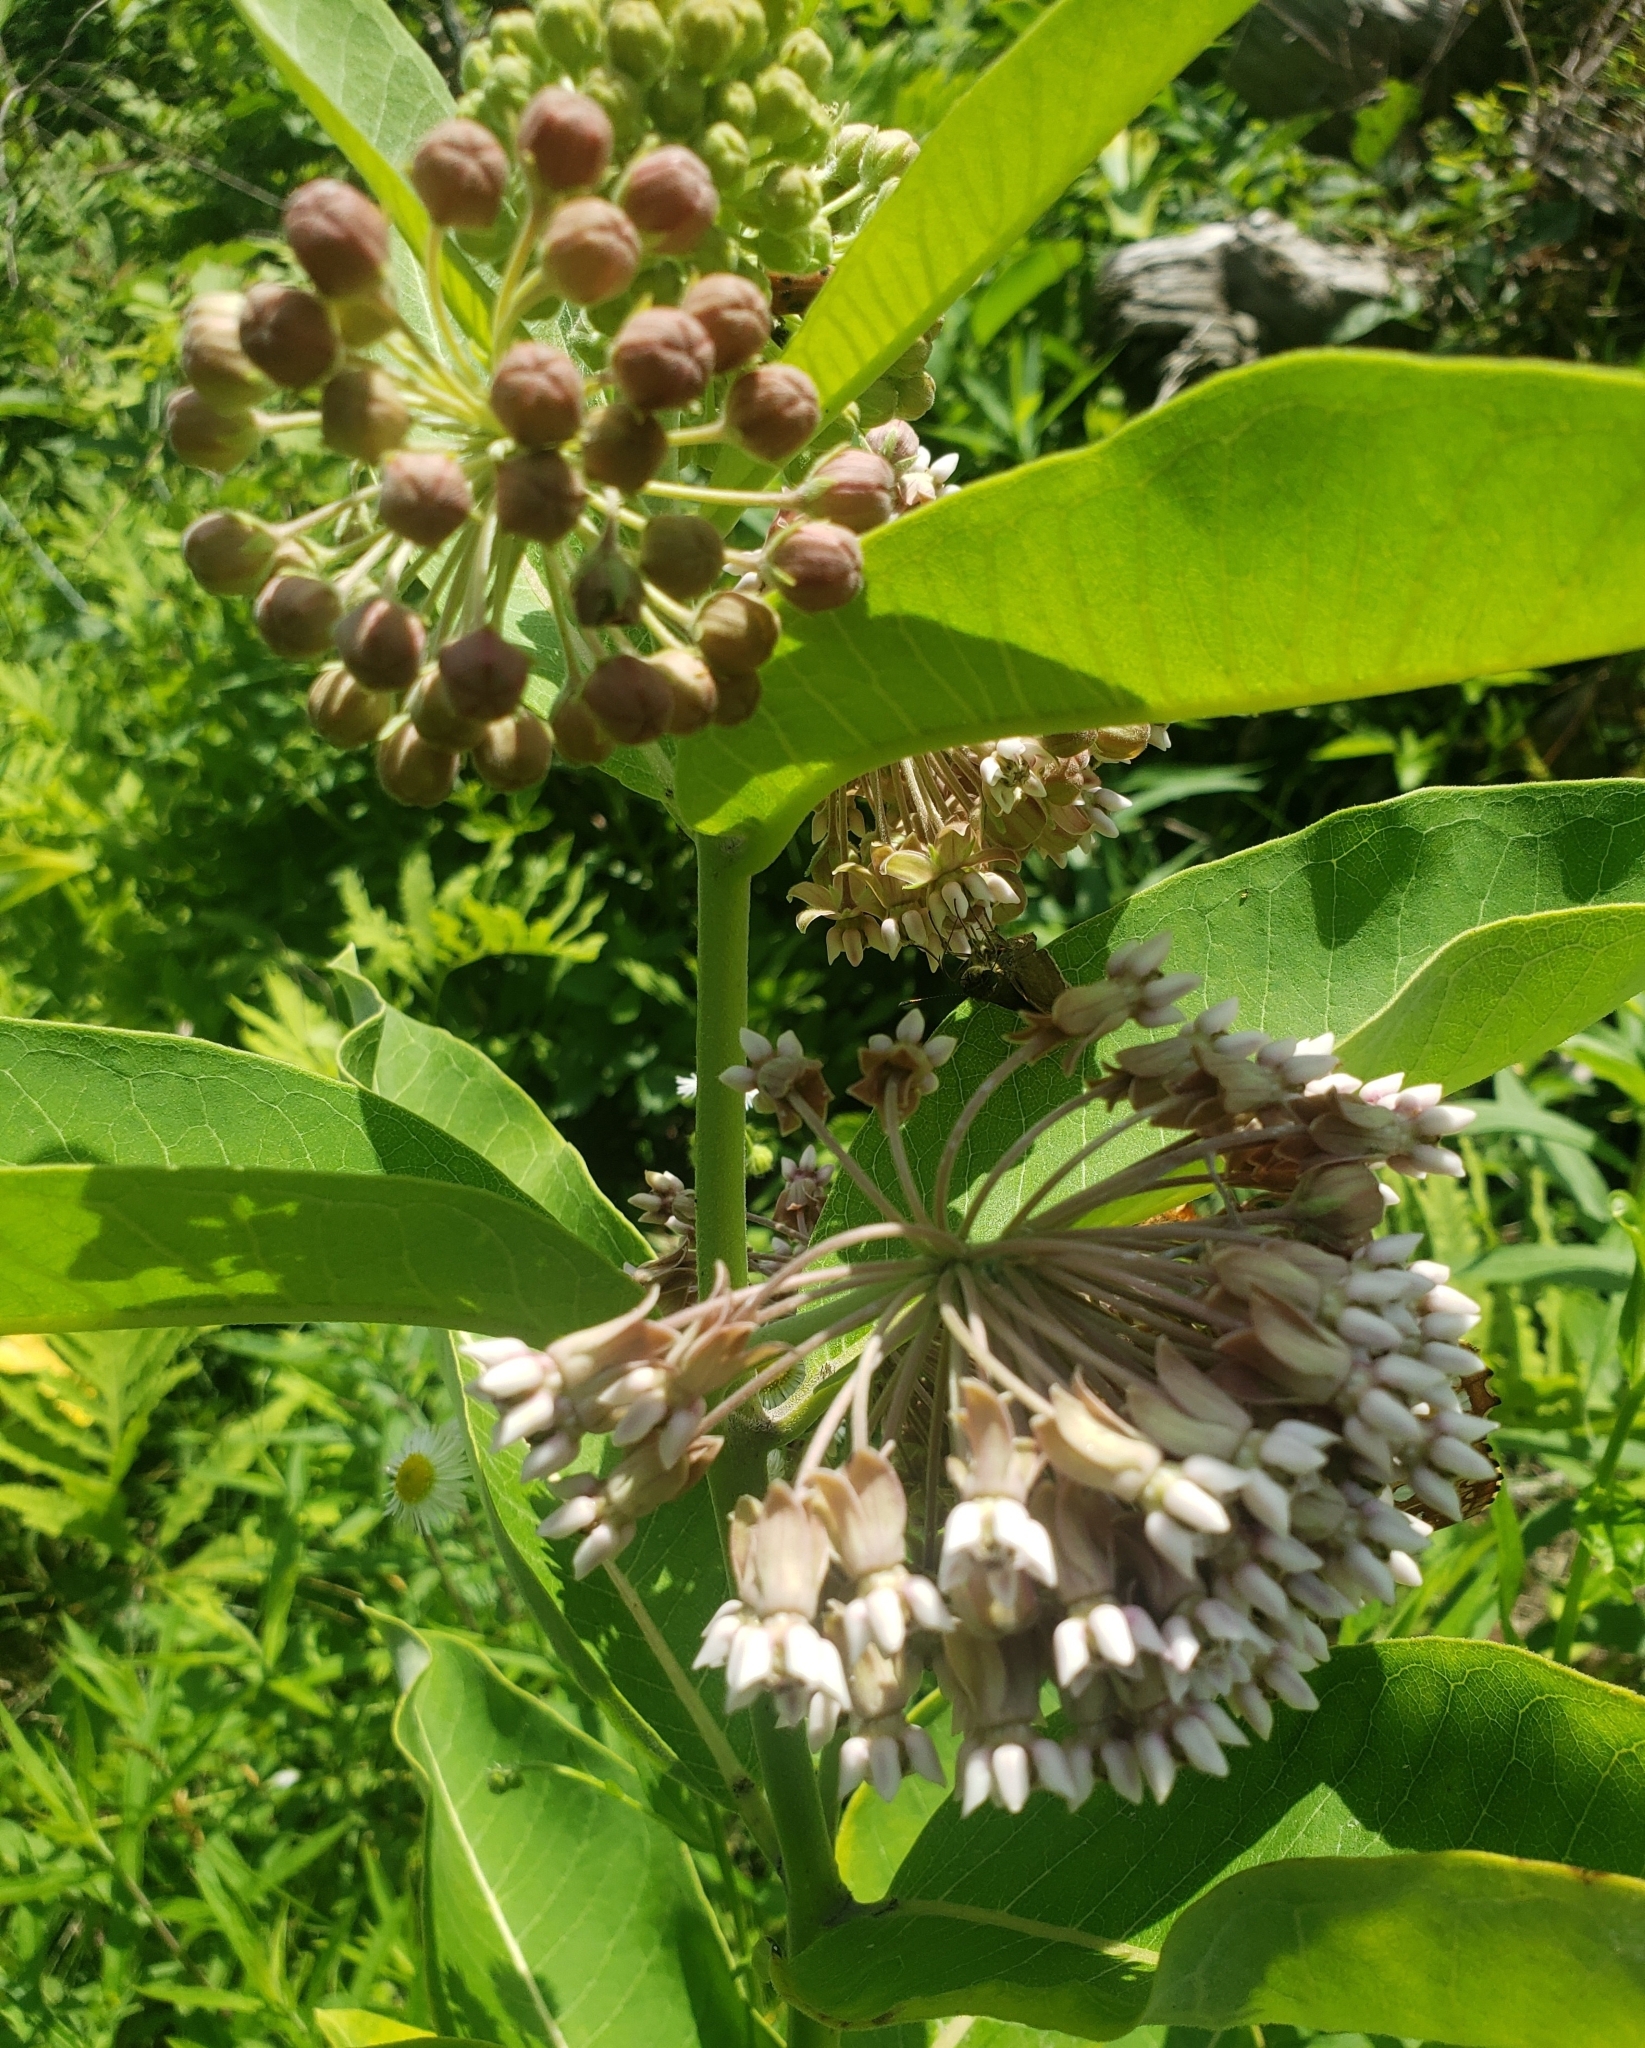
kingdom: Plantae
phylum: Tracheophyta
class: Magnoliopsida
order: Gentianales
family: Apocynaceae
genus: Asclepias
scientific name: Asclepias syriaca
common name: Common milkweed
